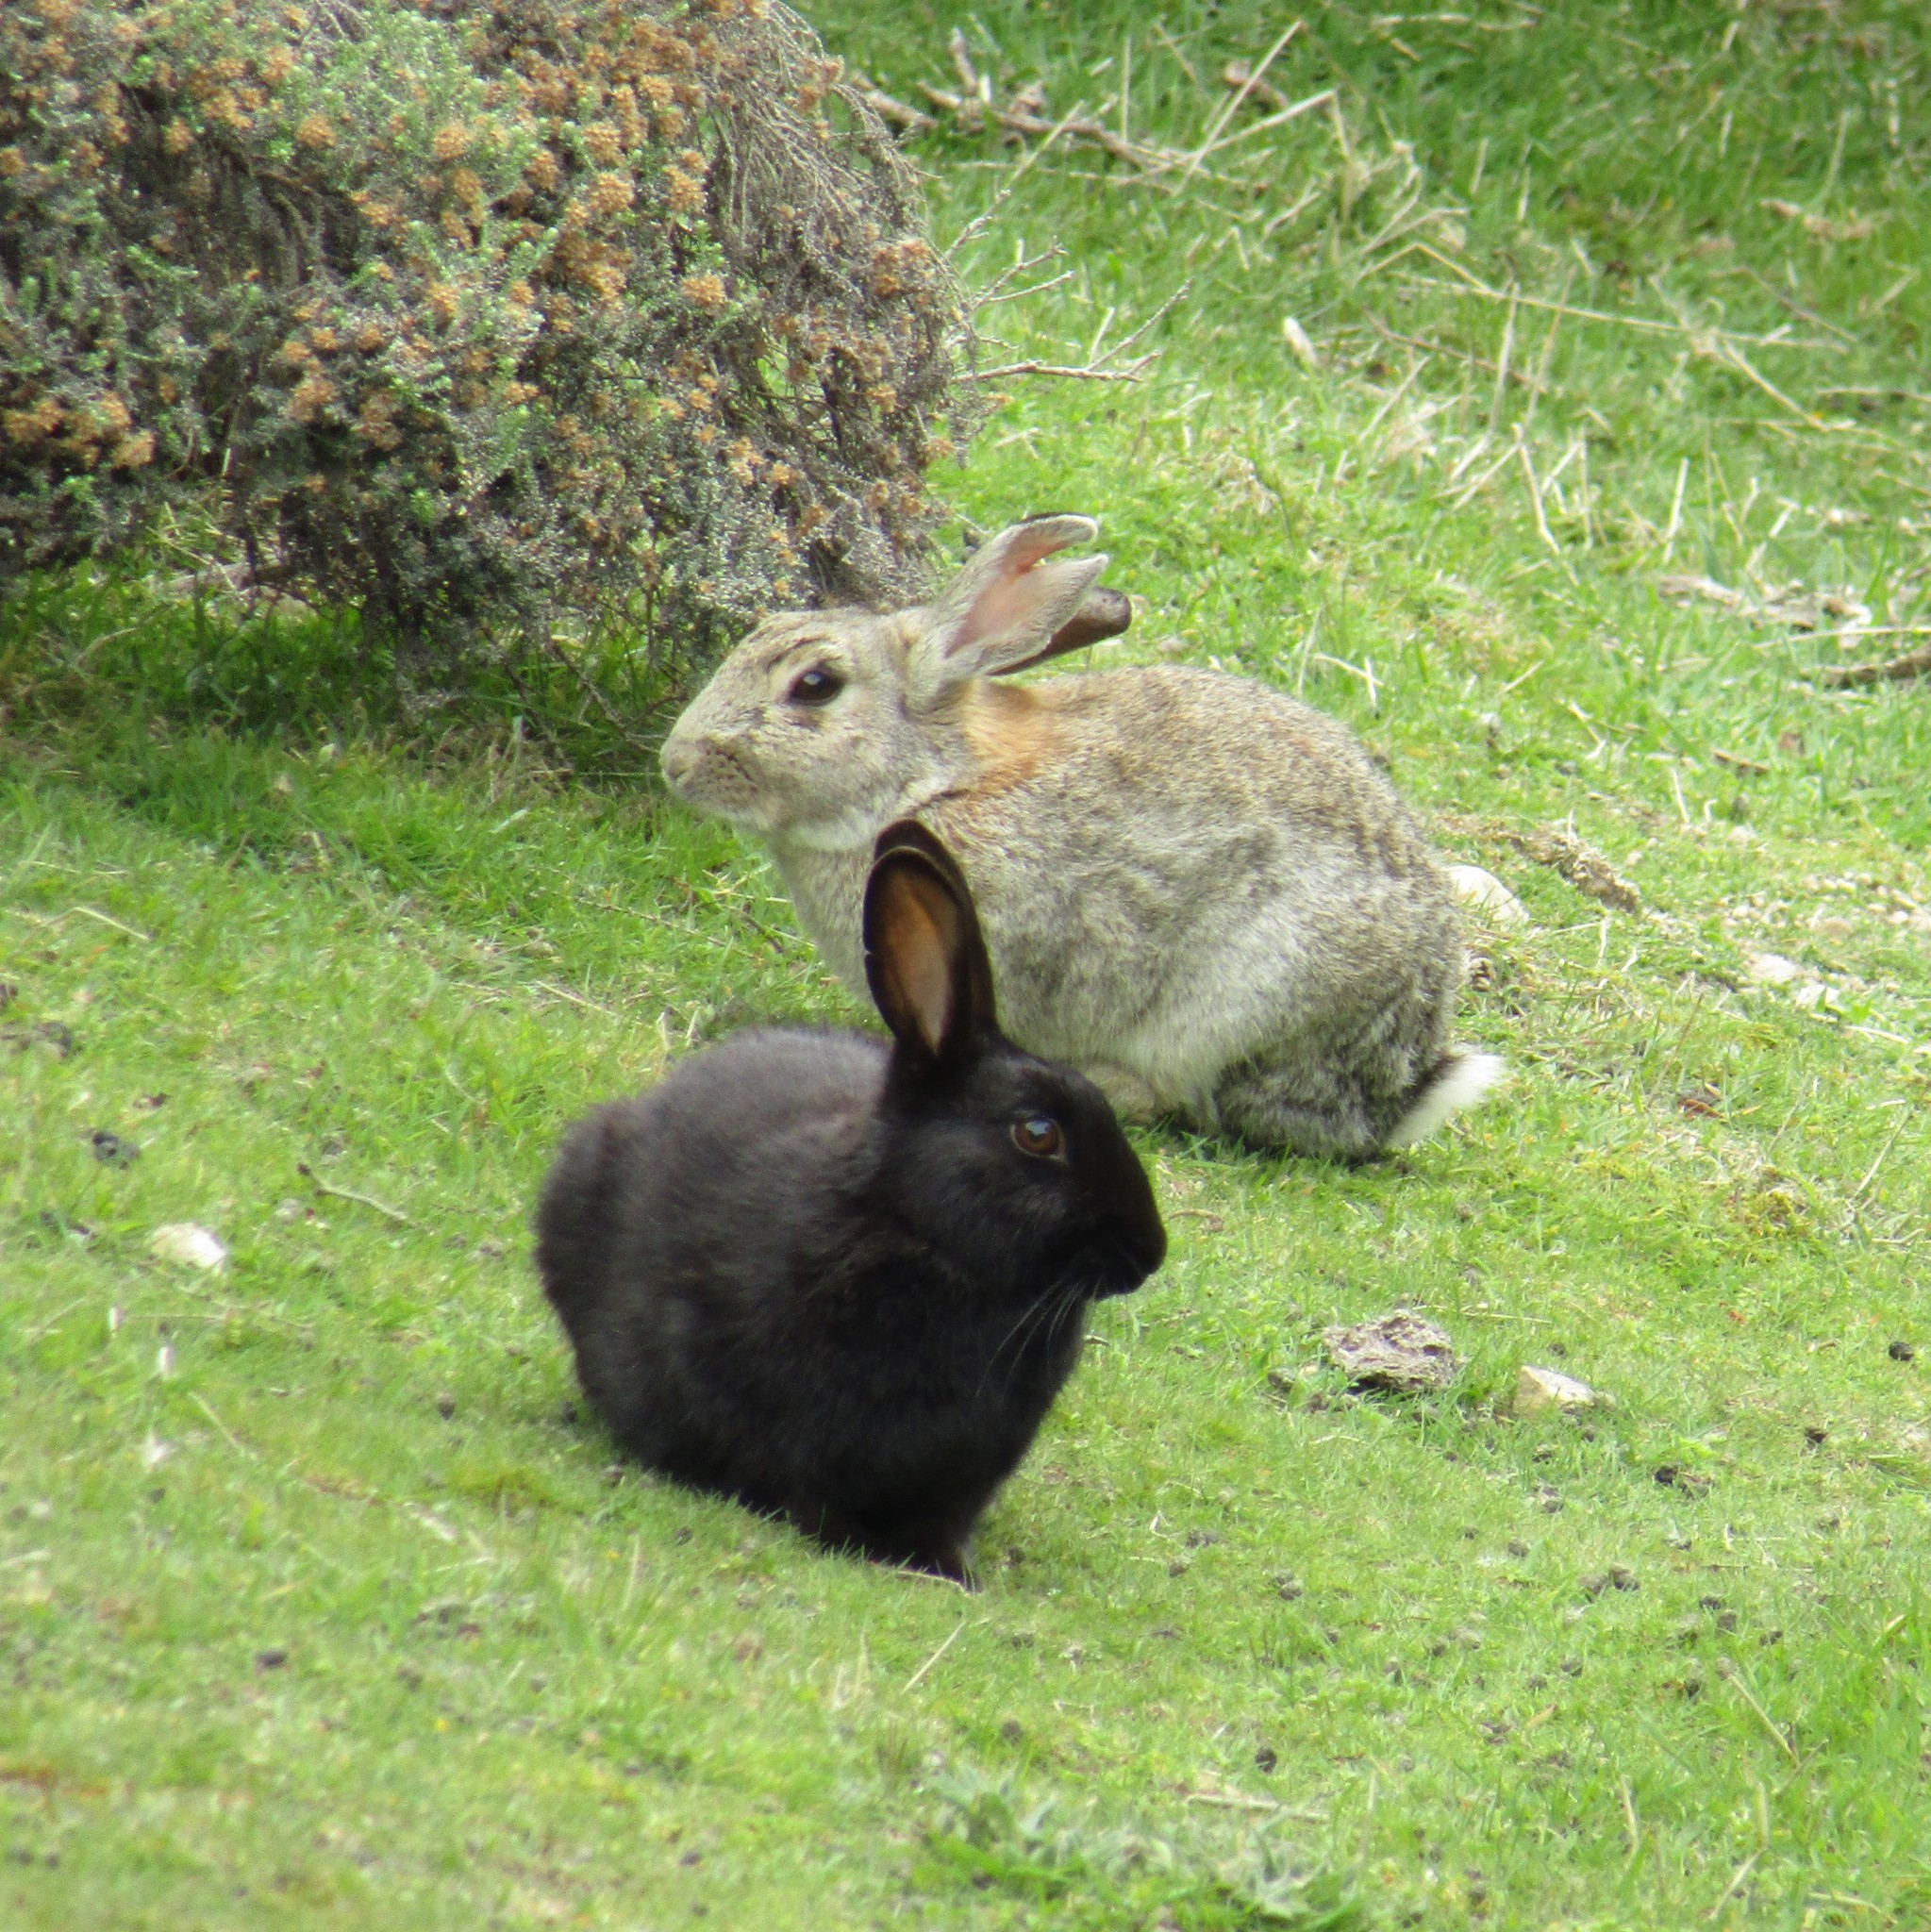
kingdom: Animalia
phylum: Chordata
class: Mammalia
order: Lagomorpha
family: Leporidae
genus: Oryctolagus
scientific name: Oryctolagus cuniculus
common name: European rabbit
